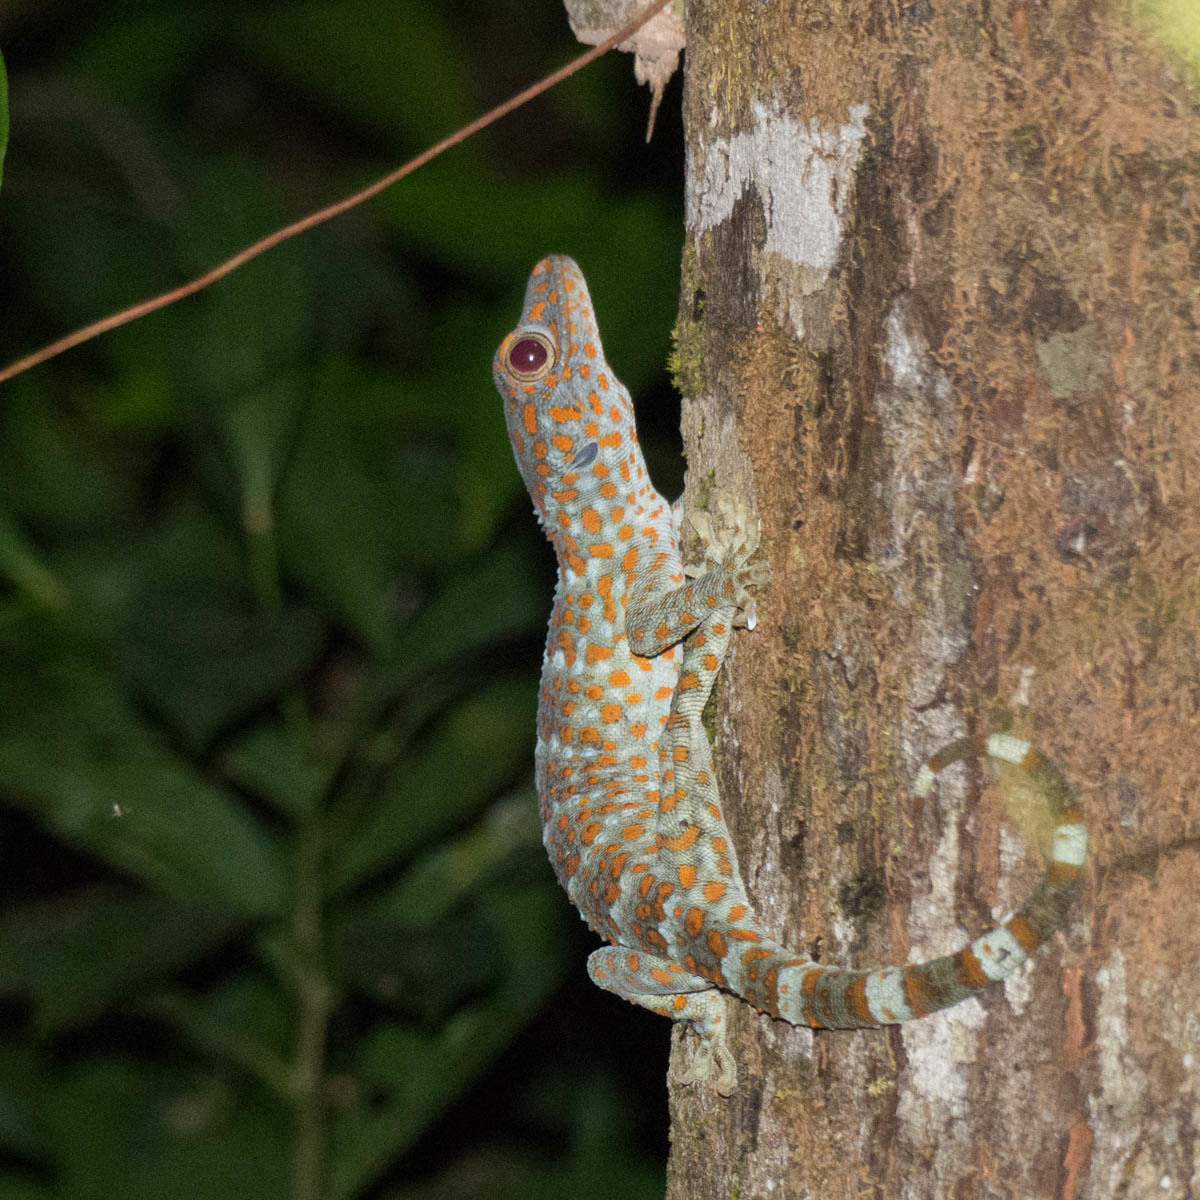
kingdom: Animalia
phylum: Chordata
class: Squamata
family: Gekkonidae
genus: Gekko
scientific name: Gekko gecko
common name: Tokay gecko
